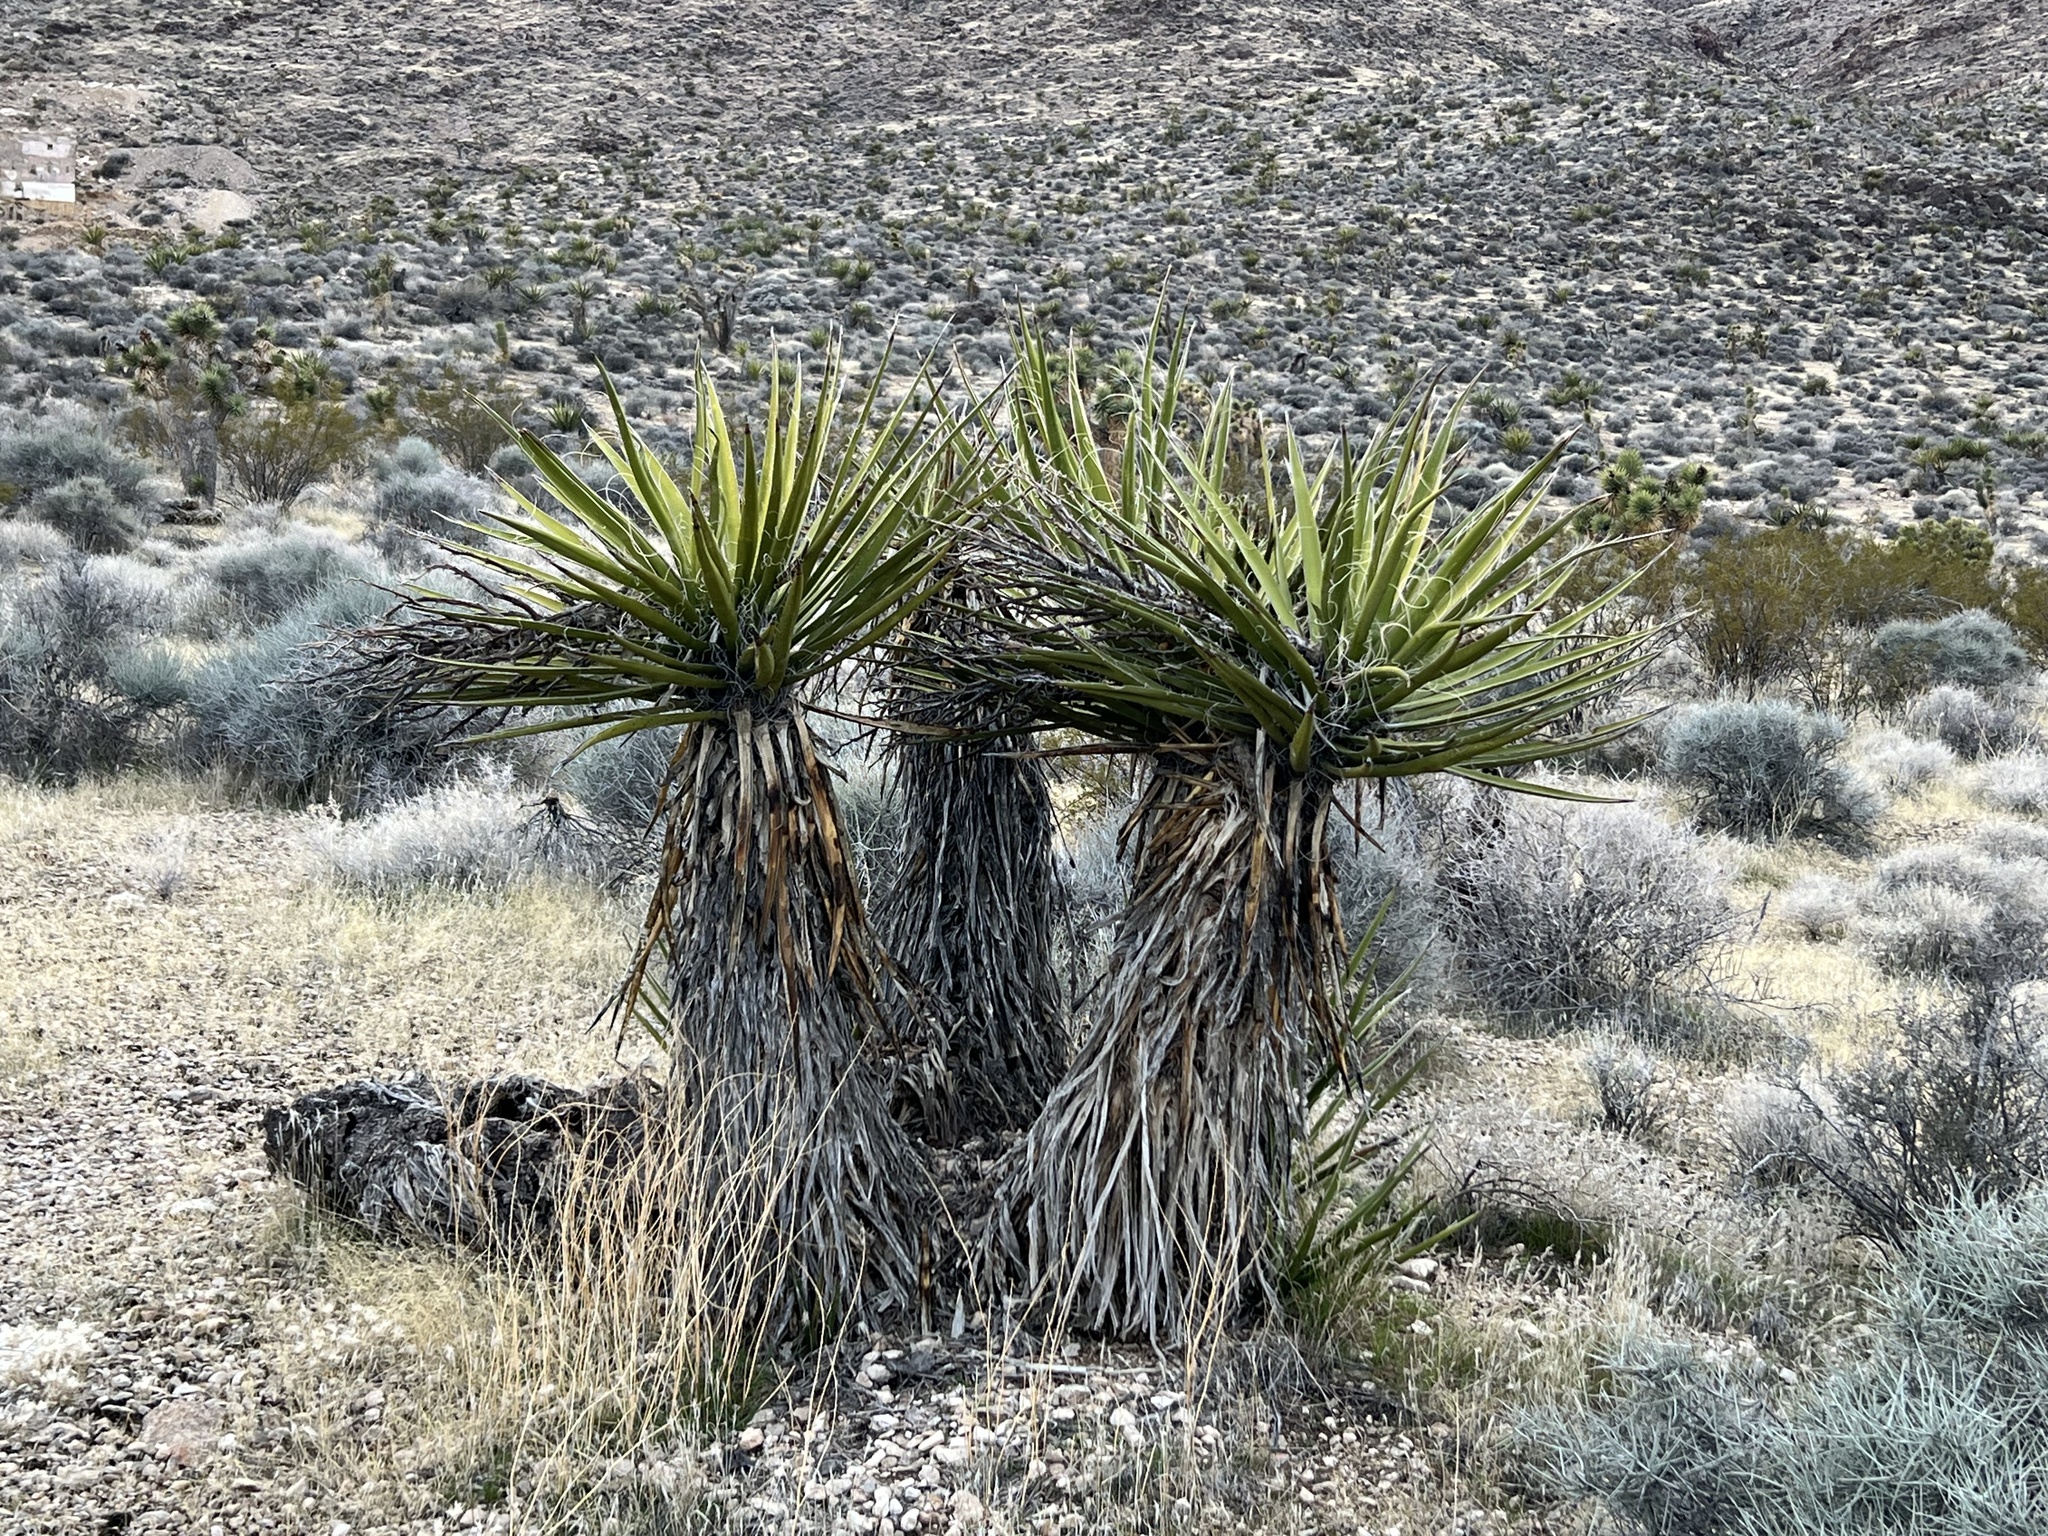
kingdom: Plantae
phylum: Tracheophyta
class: Liliopsida
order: Asparagales
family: Asparagaceae
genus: Yucca
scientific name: Yucca schidigera
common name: Mojave yucca
